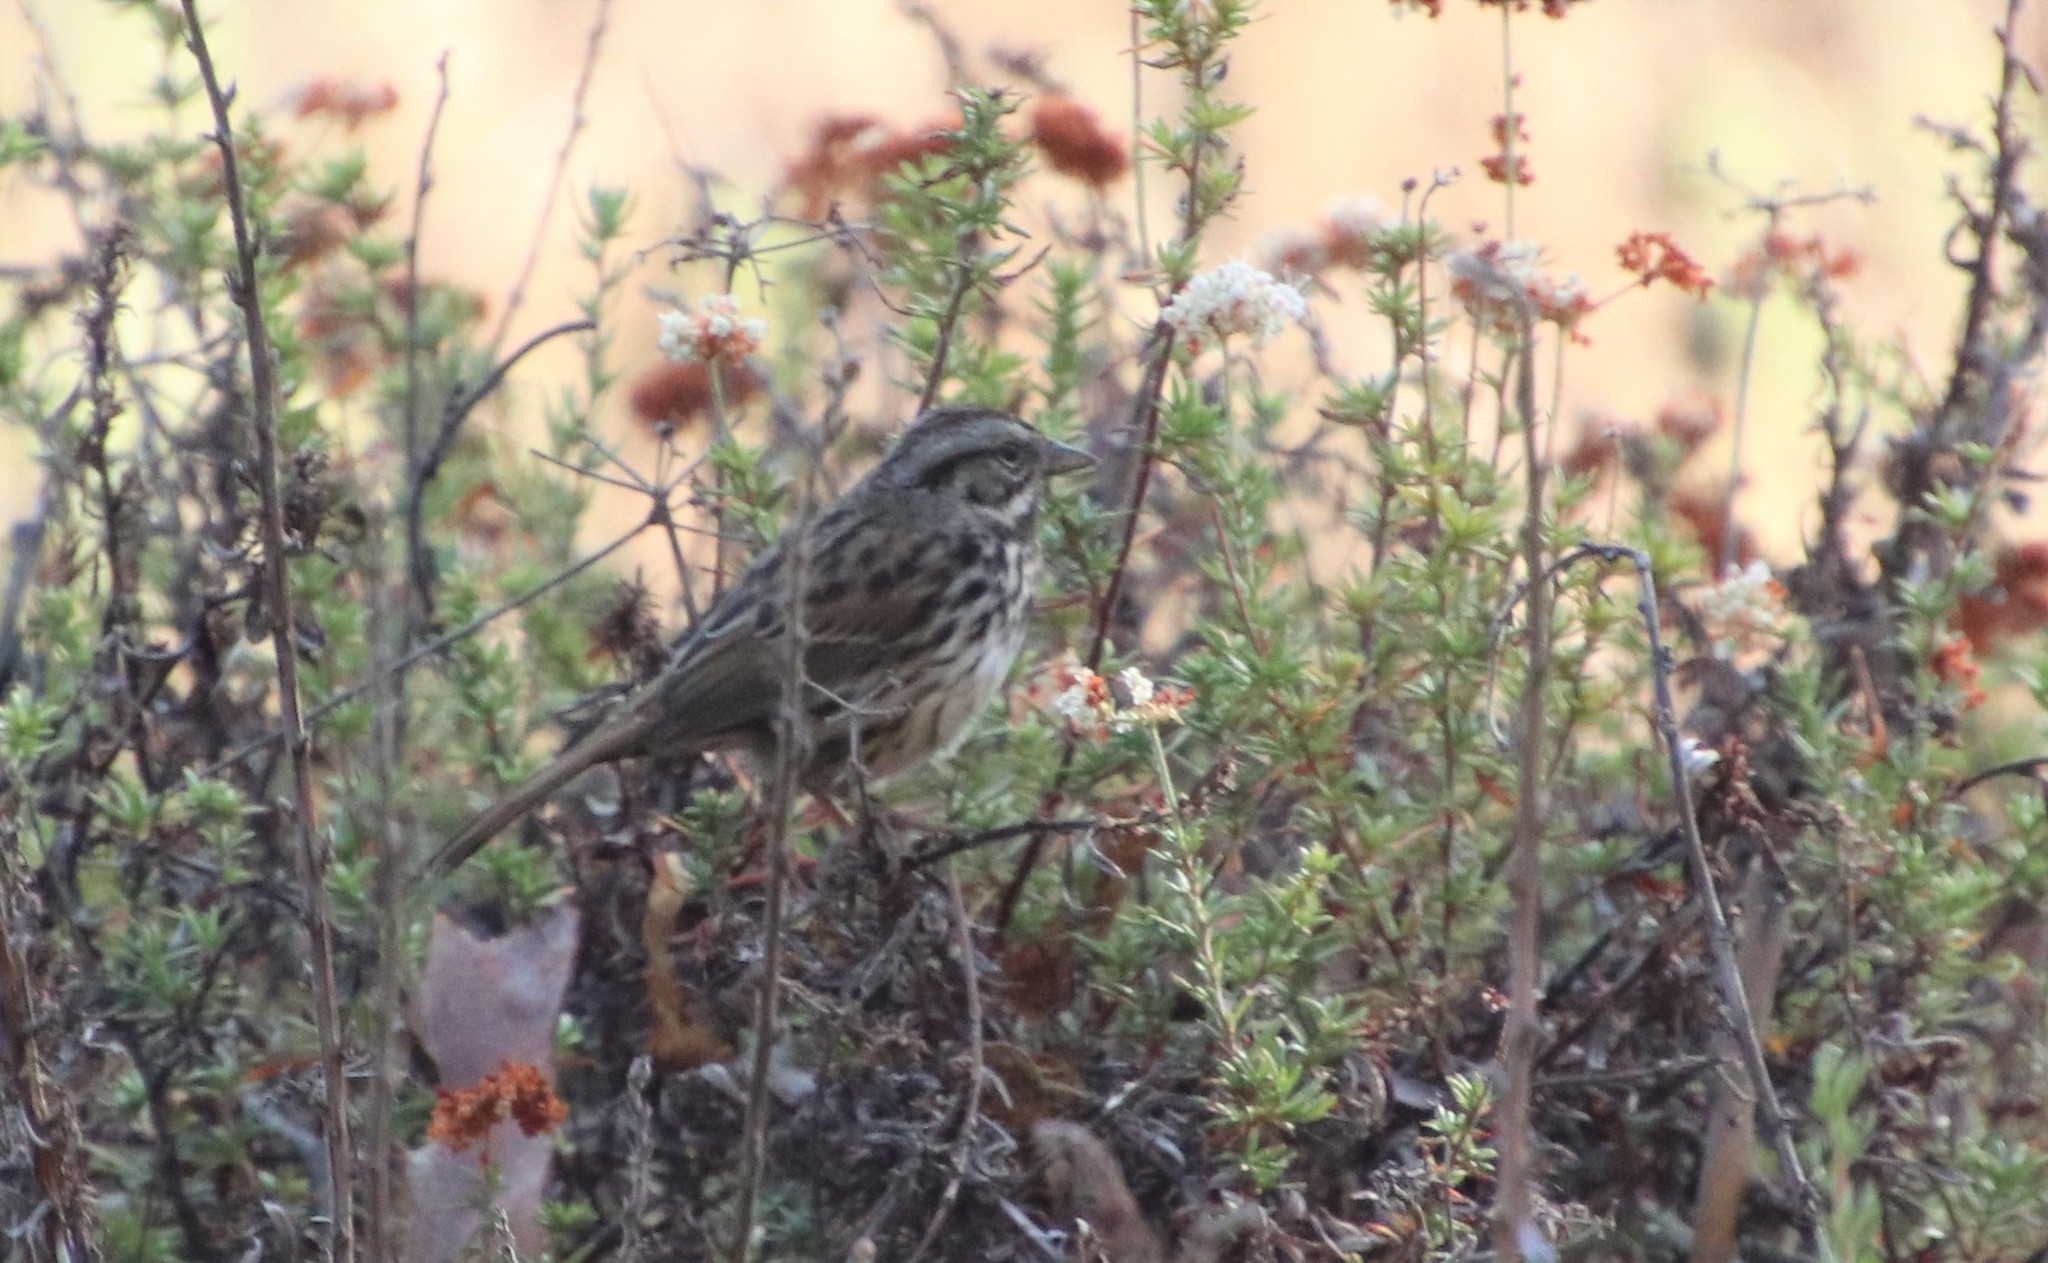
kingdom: Animalia
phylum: Chordata
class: Aves
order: Passeriformes
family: Passerellidae
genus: Melospiza
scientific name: Melospiza melodia
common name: Song sparrow
